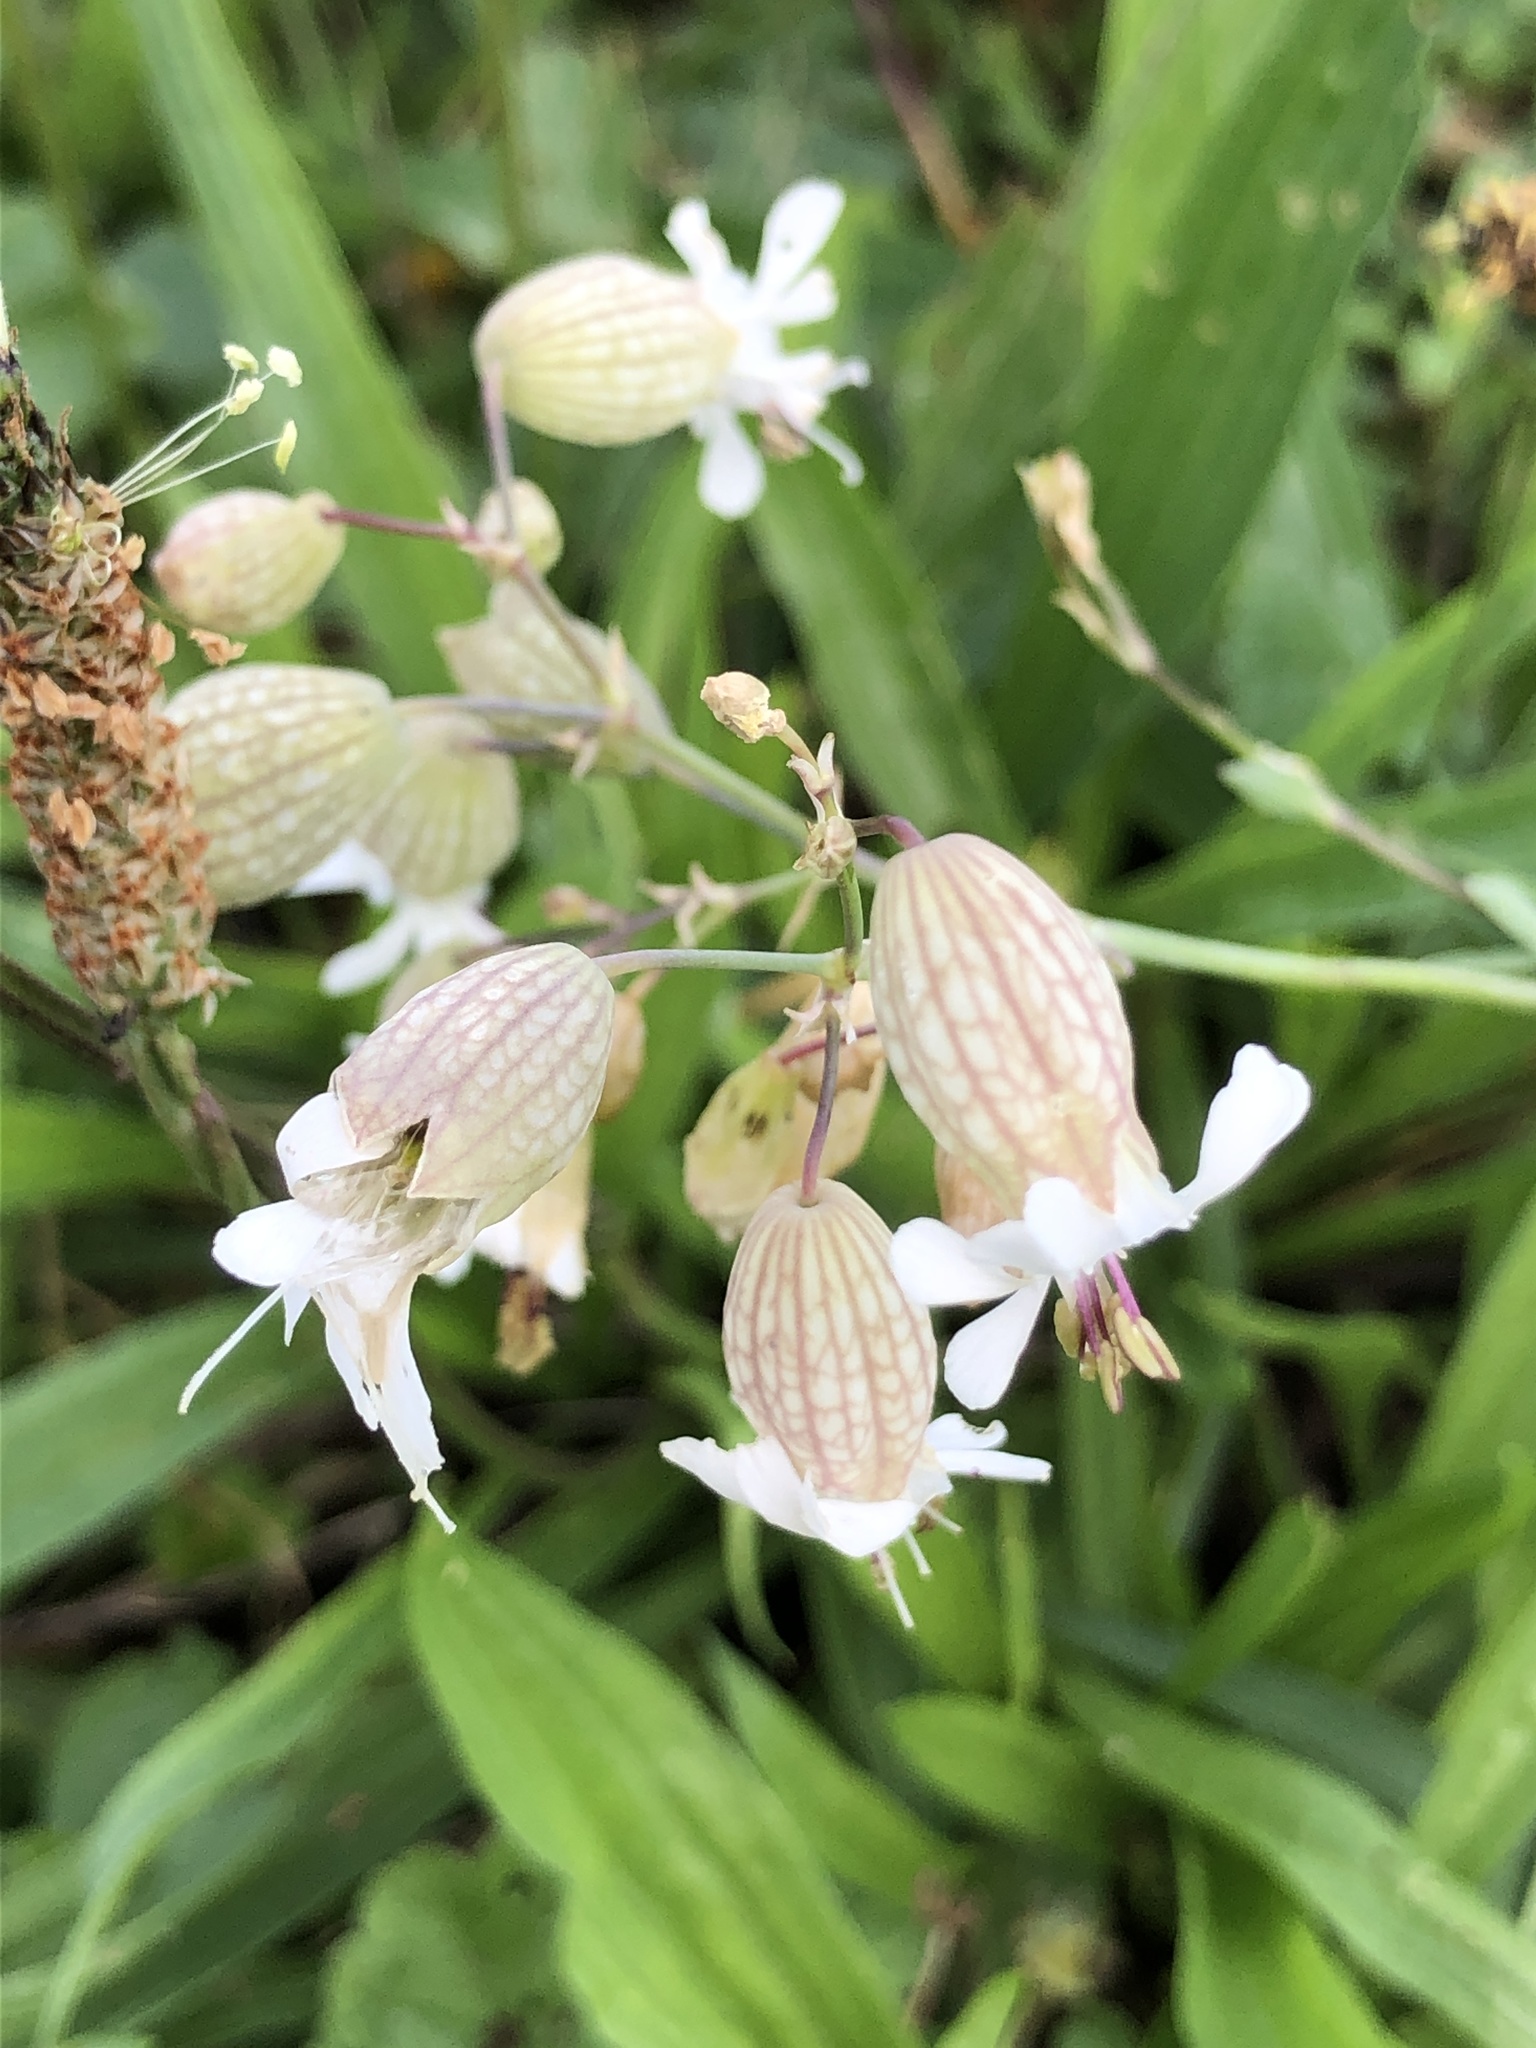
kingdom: Plantae
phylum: Tracheophyta
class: Magnoliopsida
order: Caryophyllales
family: Caryophyllaceae
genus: Silene
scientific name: Silene vulgaris
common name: Bladder campion
